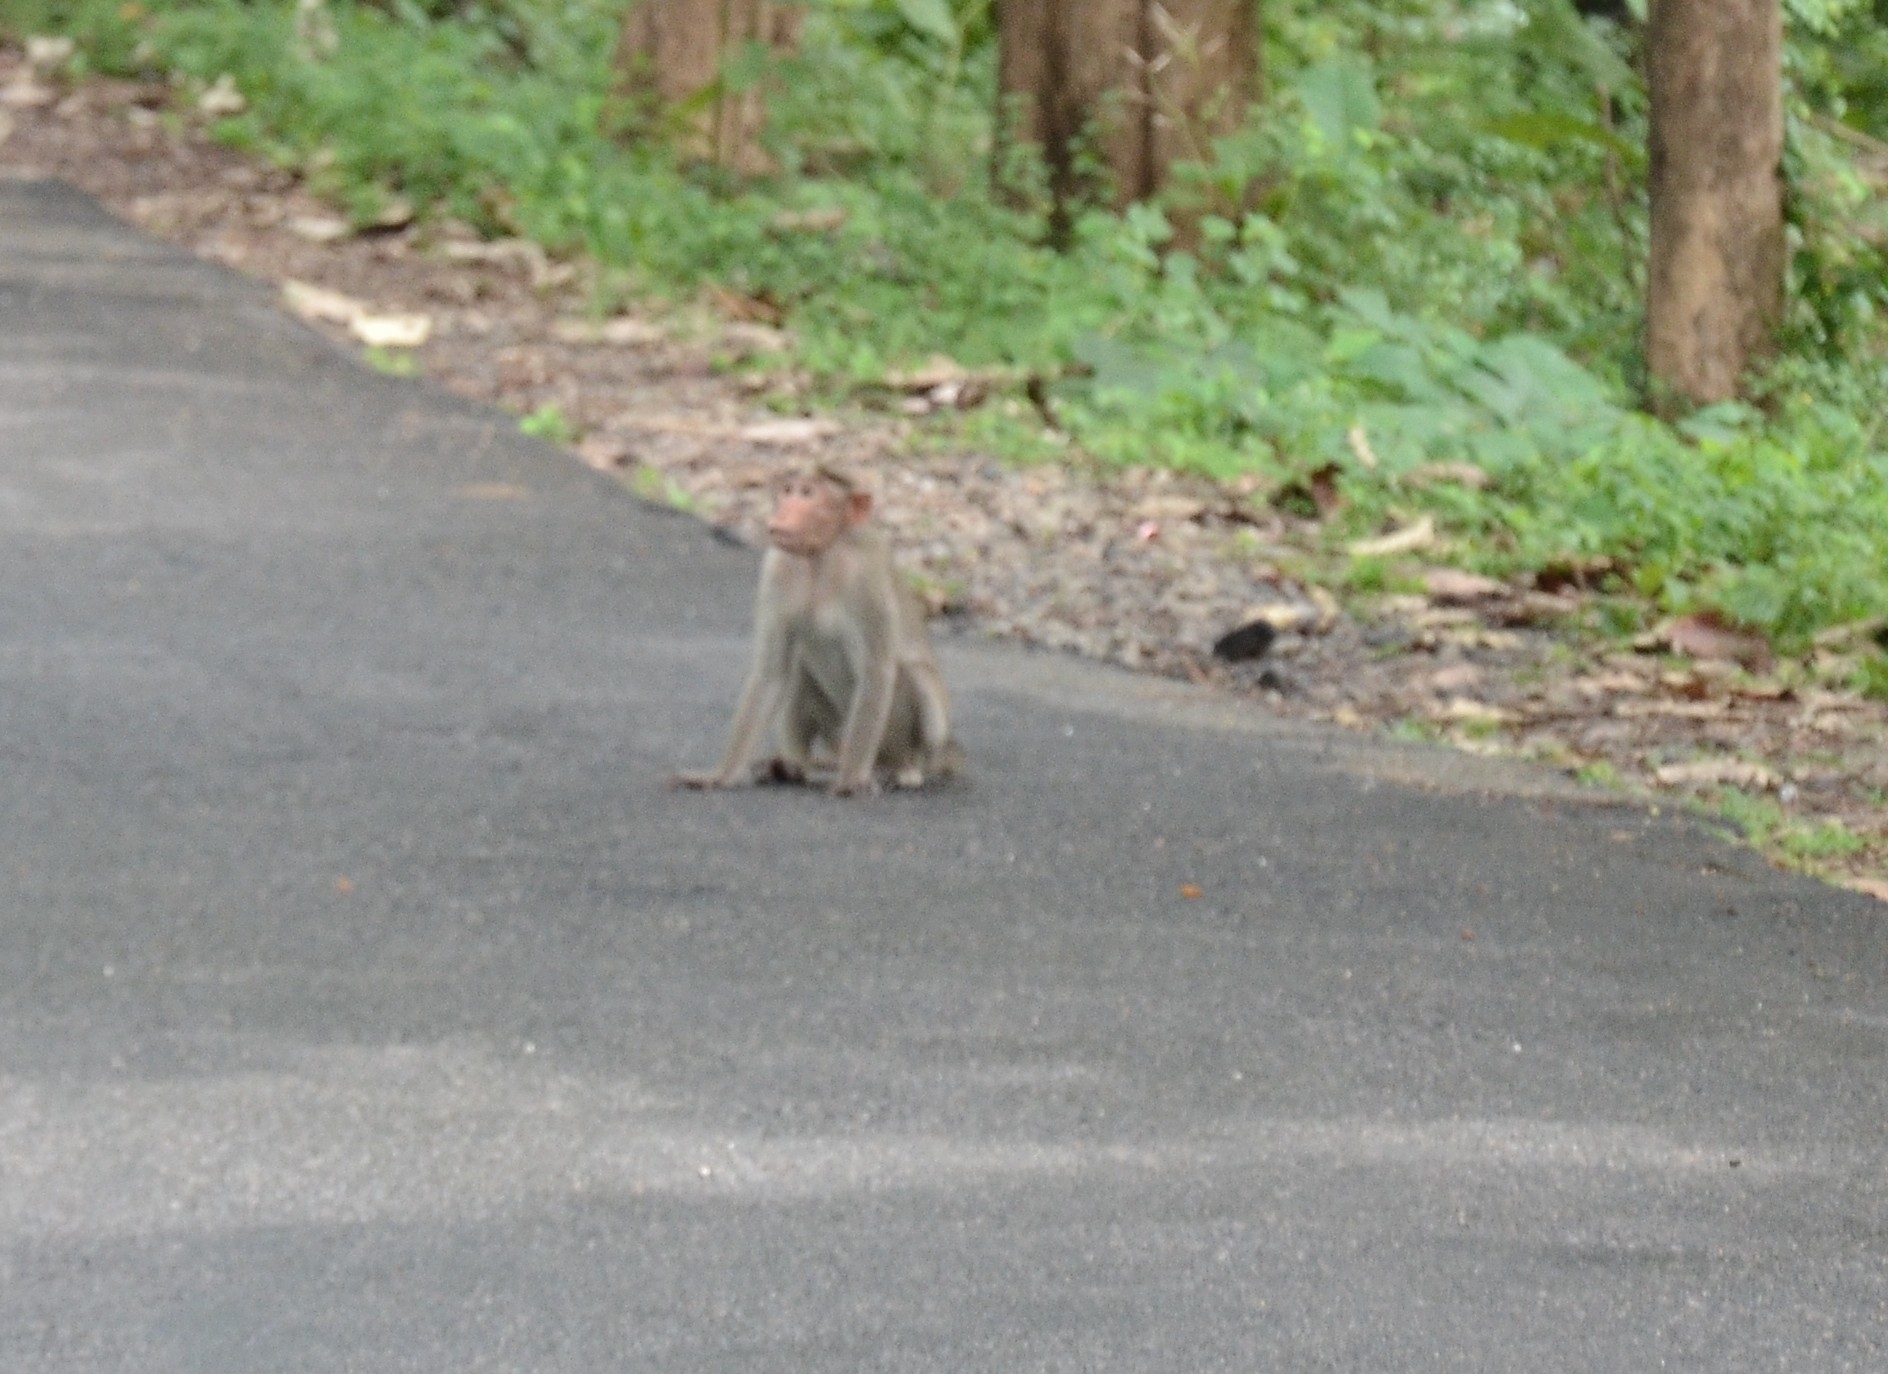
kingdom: Animalia
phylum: Chordata
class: Mammalia
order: Primates
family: Cercopithecidae
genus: Macaca
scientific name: Macaca radiata
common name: Bonnet macaque
